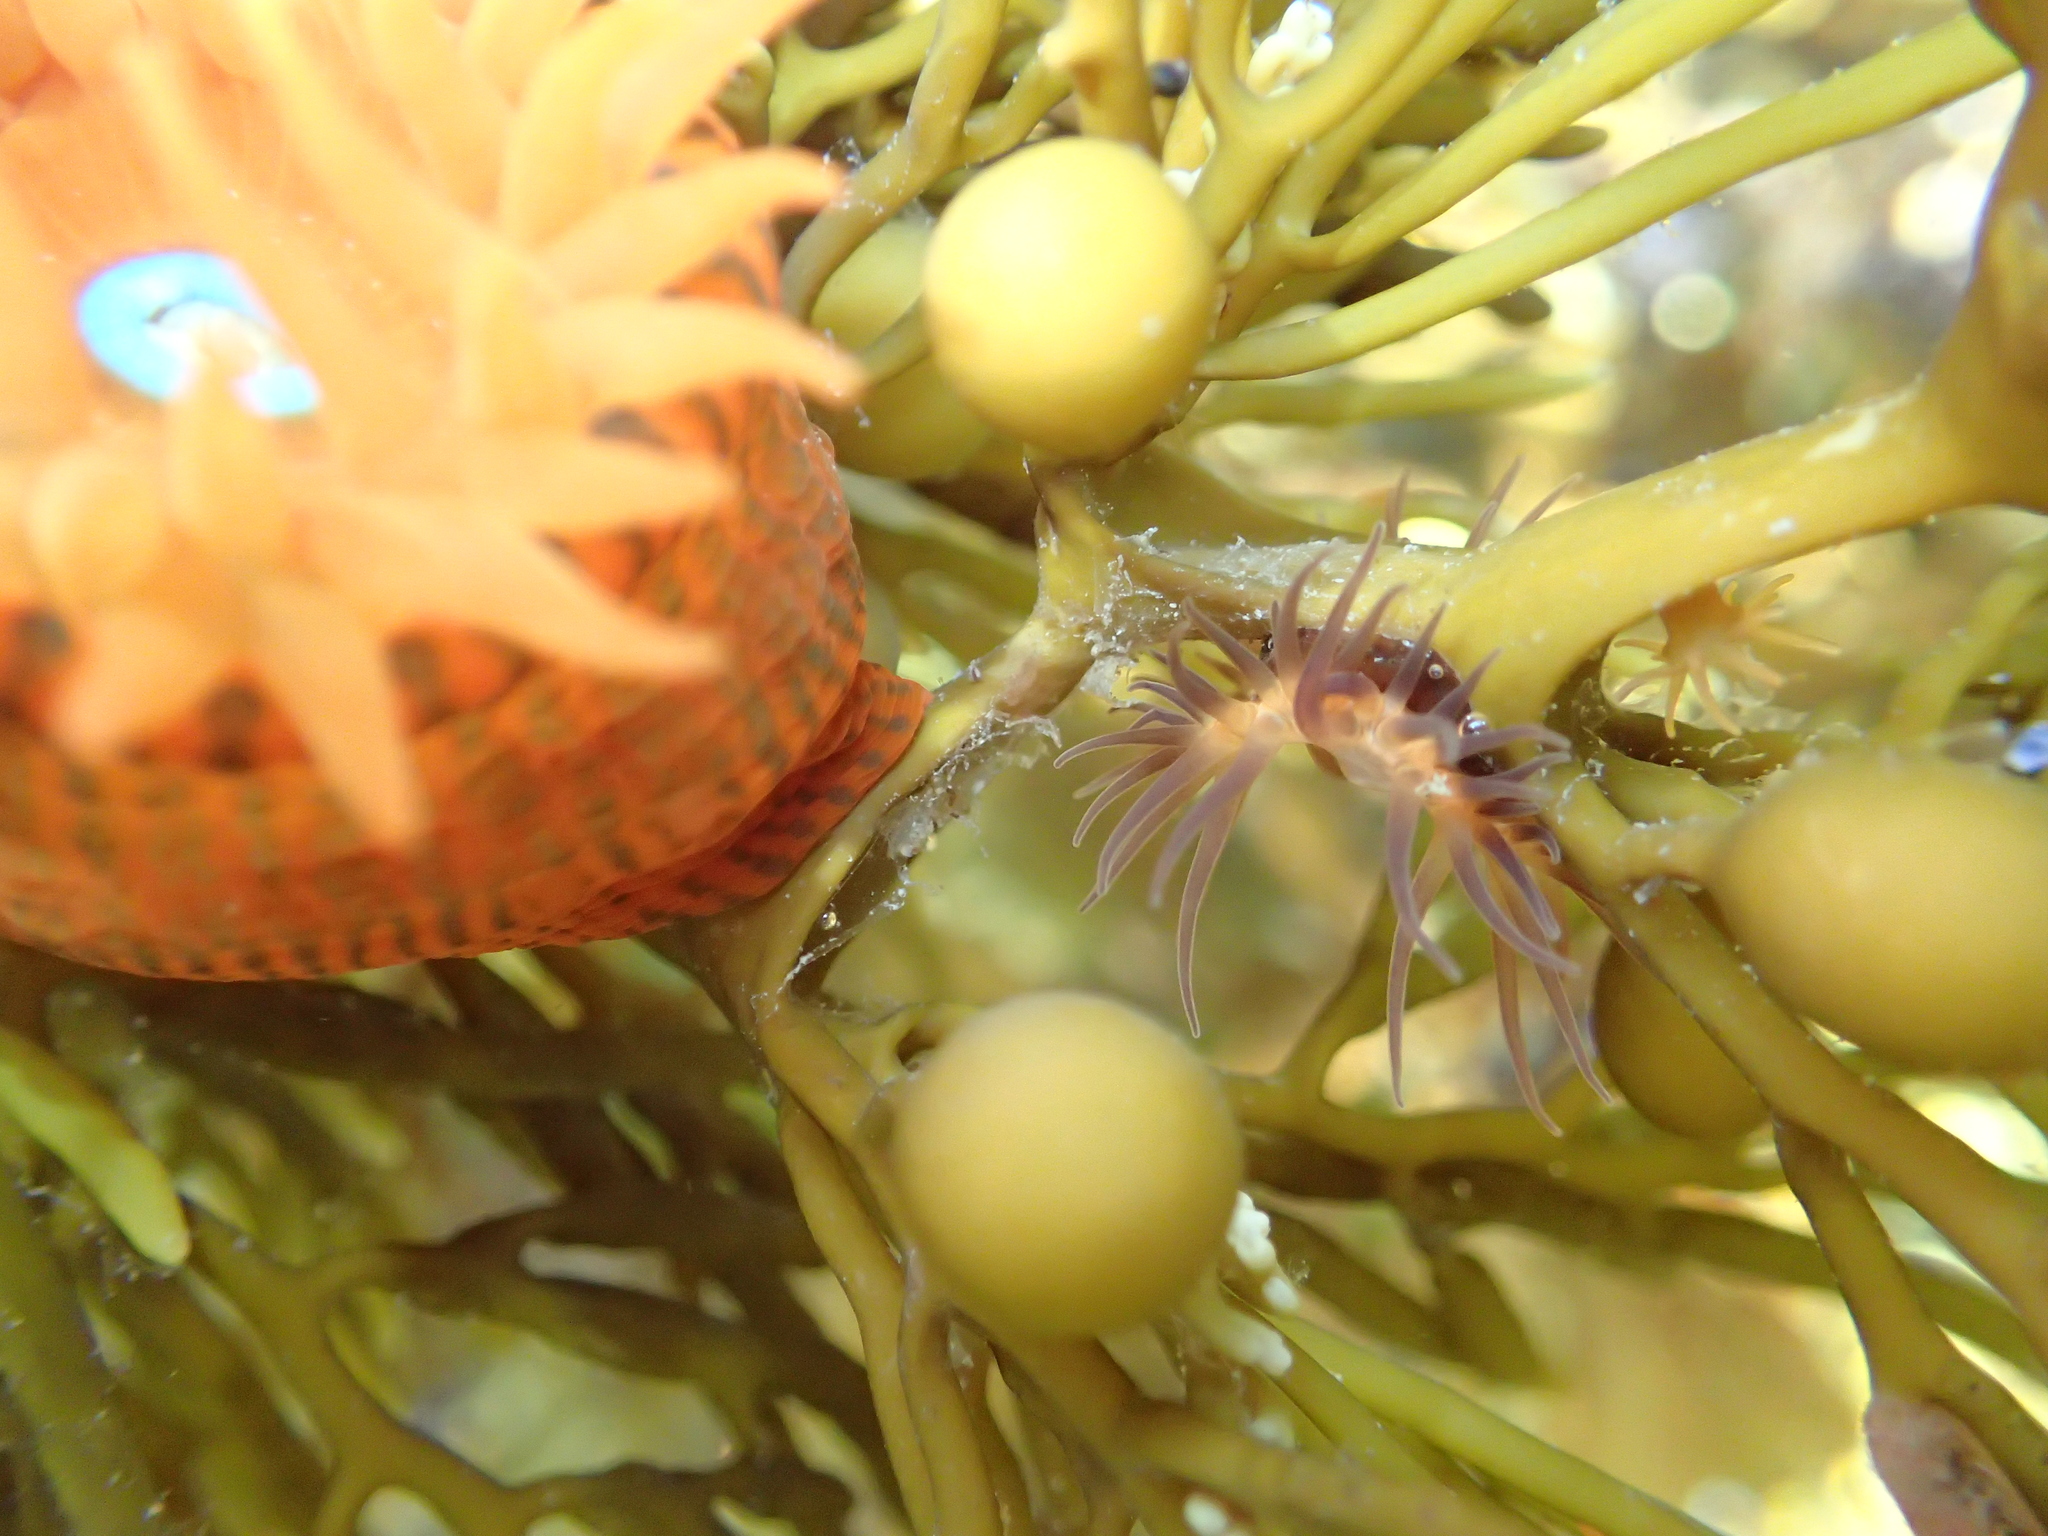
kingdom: Animalia
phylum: Cnidaria
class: Anthozoa
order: Actiniaria
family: Actiniidae
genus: Epiactis
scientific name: Epiactis
